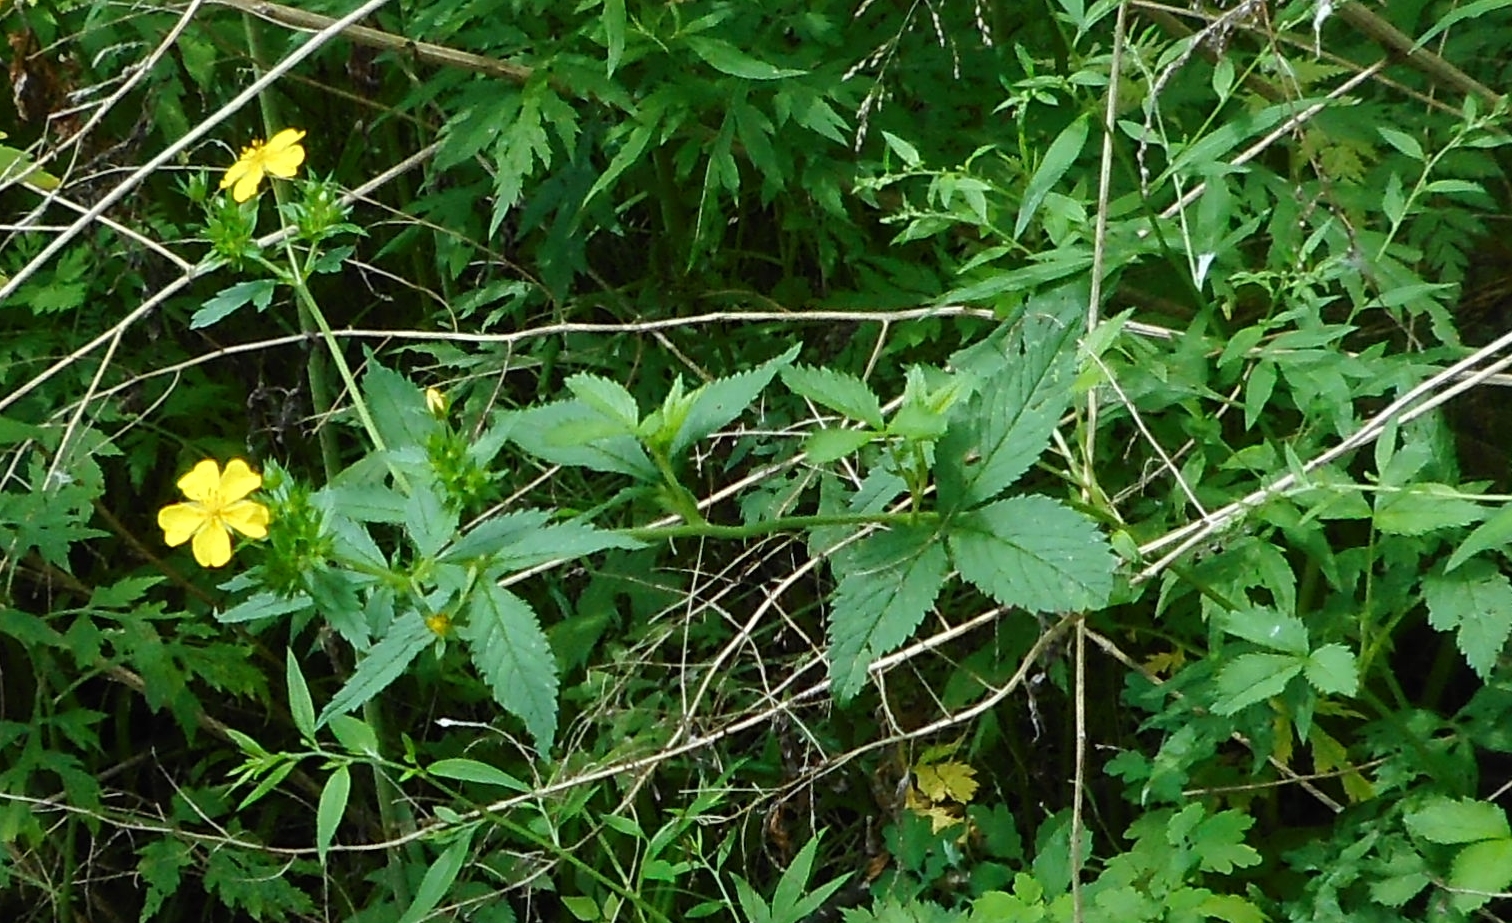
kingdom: Plantae
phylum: Tracheophyta
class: Magnoliopsida
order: Rosales
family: Rosaceae
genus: Potentilla
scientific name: Potentilla cryptotaeniae
